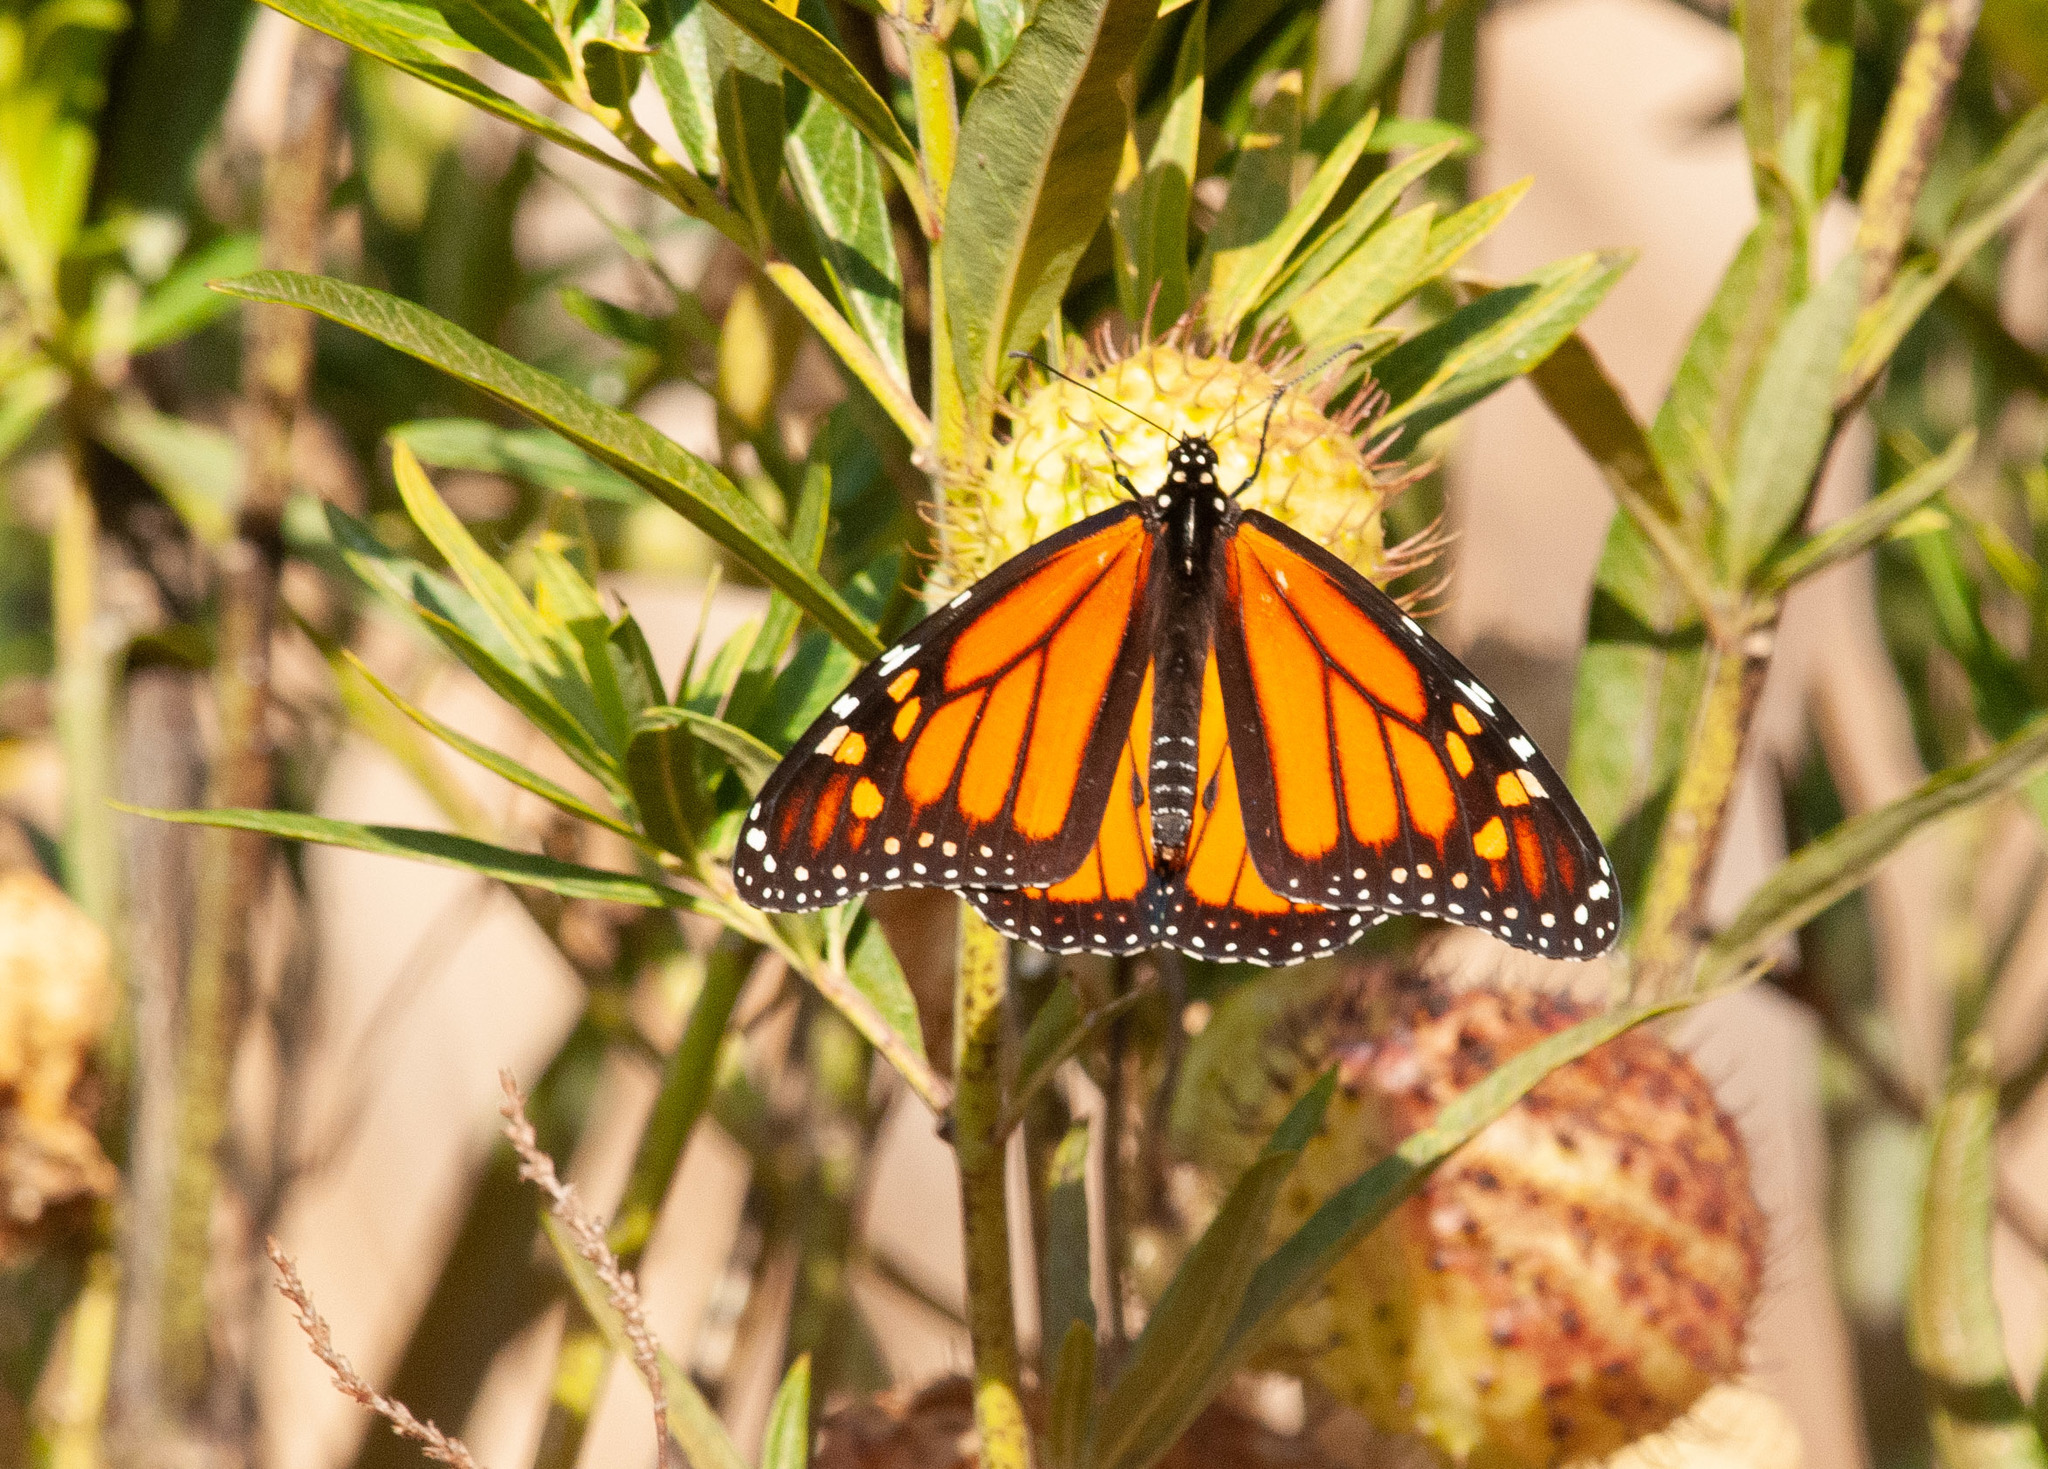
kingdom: Animalia
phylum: Arthropoda
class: Insecta
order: Lepidoptera
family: Nymphalidae
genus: Danaus
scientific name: Danaus plexippus
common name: Monarch
